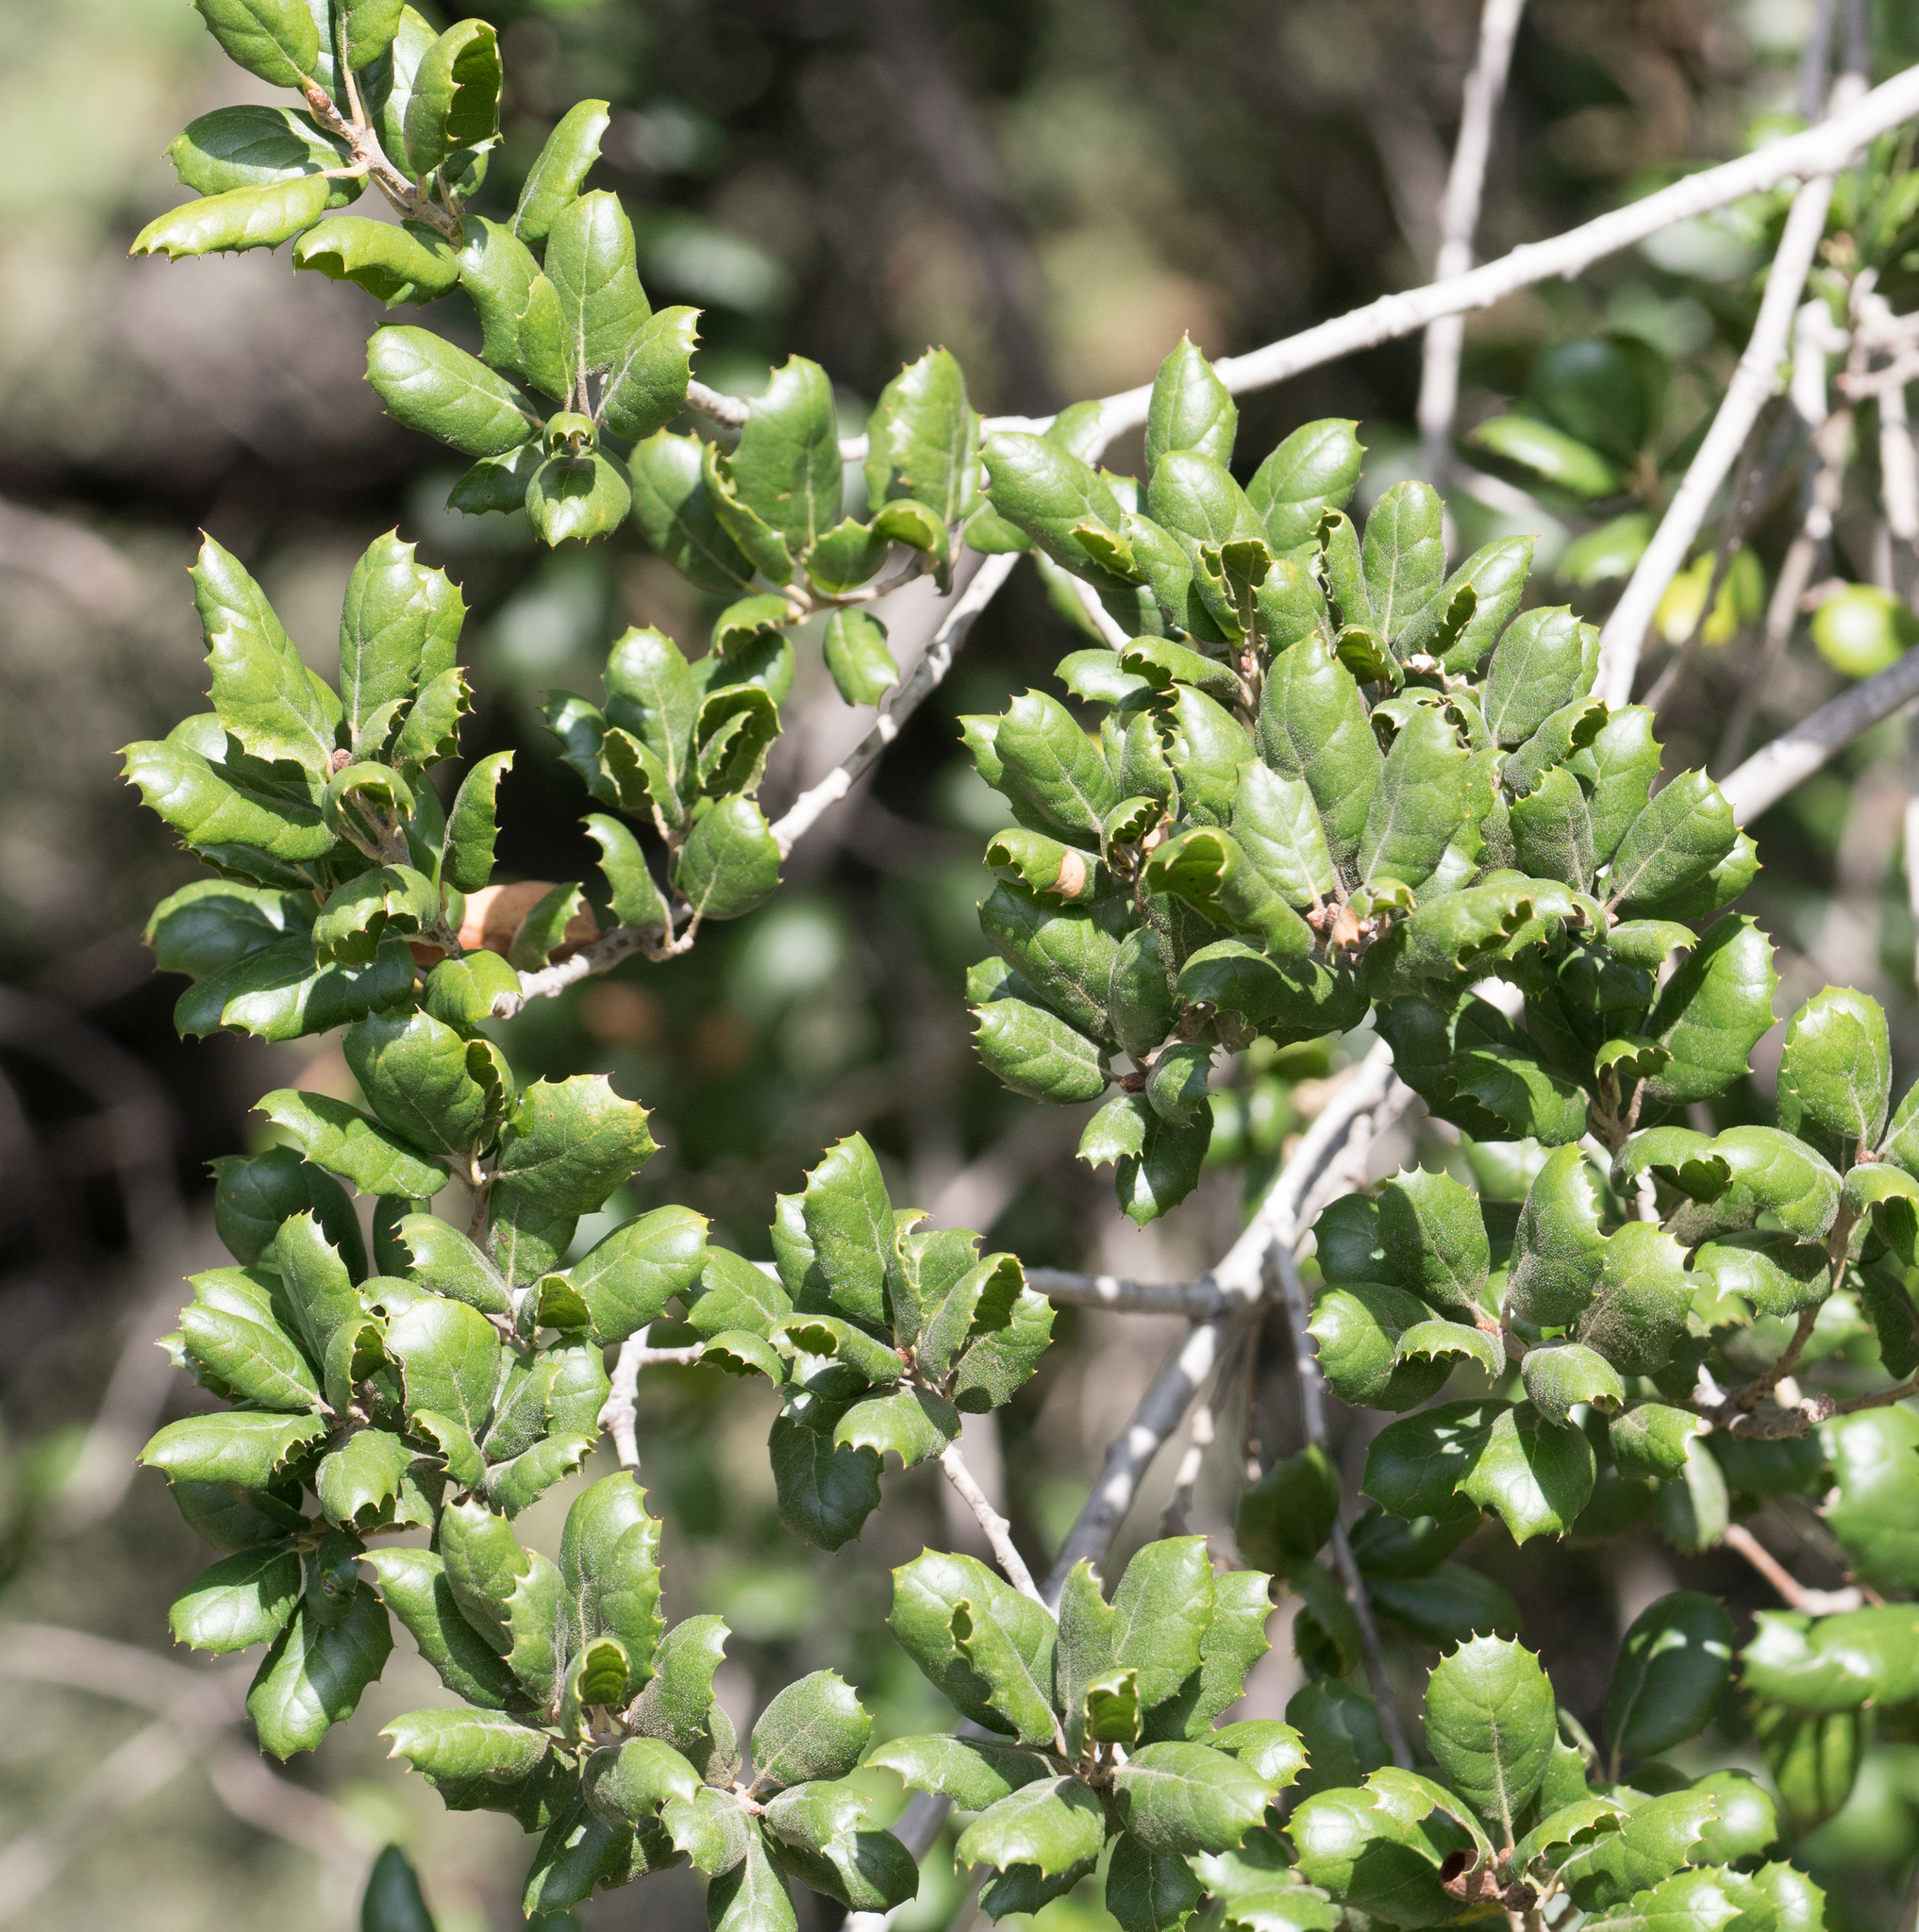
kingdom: Plantae
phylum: Tracheophyta
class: Magnoliopsida
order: Fagales
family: Fagaceae
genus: Quercus
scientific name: Quercus agrifolia
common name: California live oak
